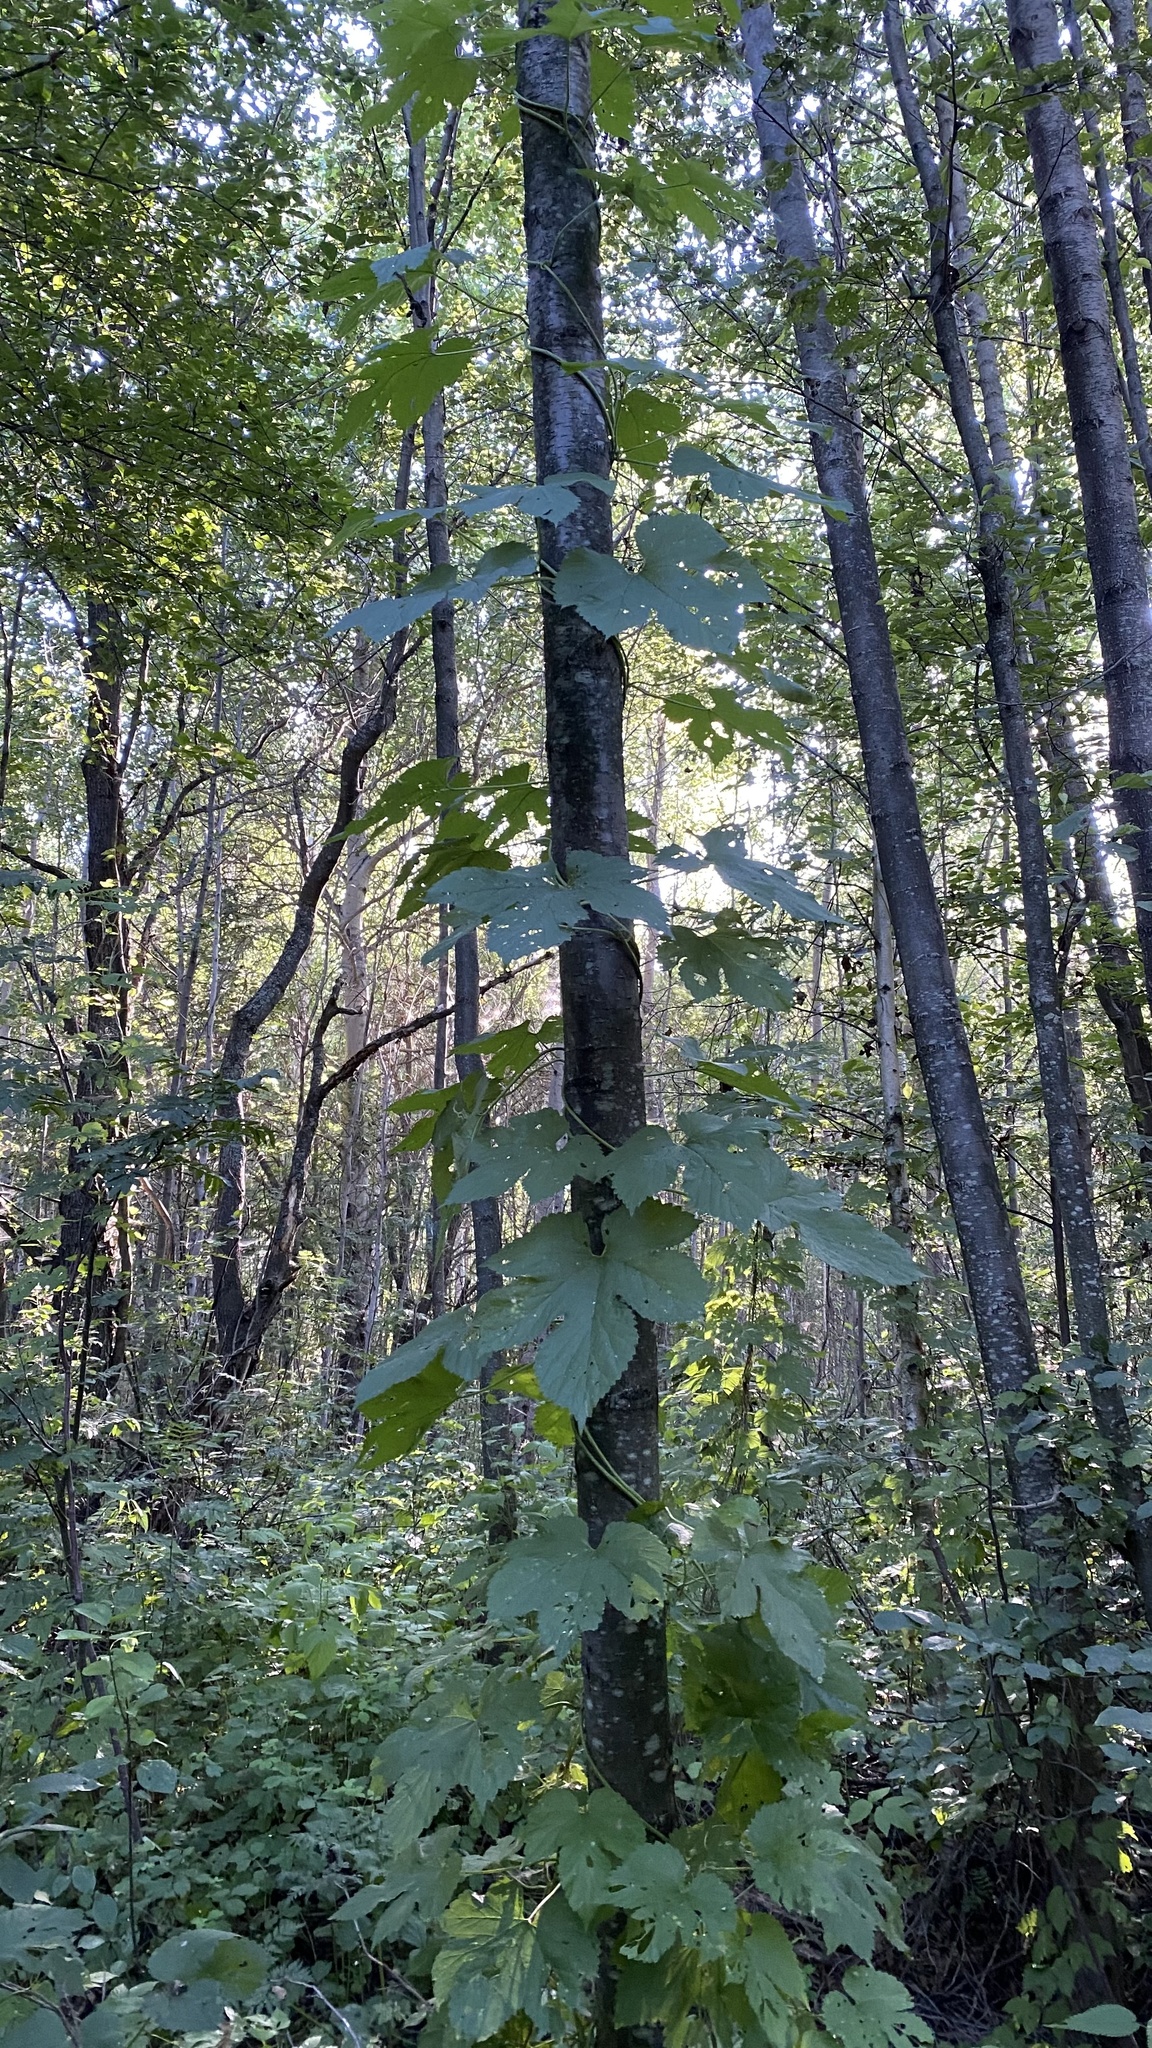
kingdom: Plantae
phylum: Tracheophyta
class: Magnoliopsida
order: Rosales
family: Cannabaceae
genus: Humulus
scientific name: Humulus lupulus
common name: Hop
